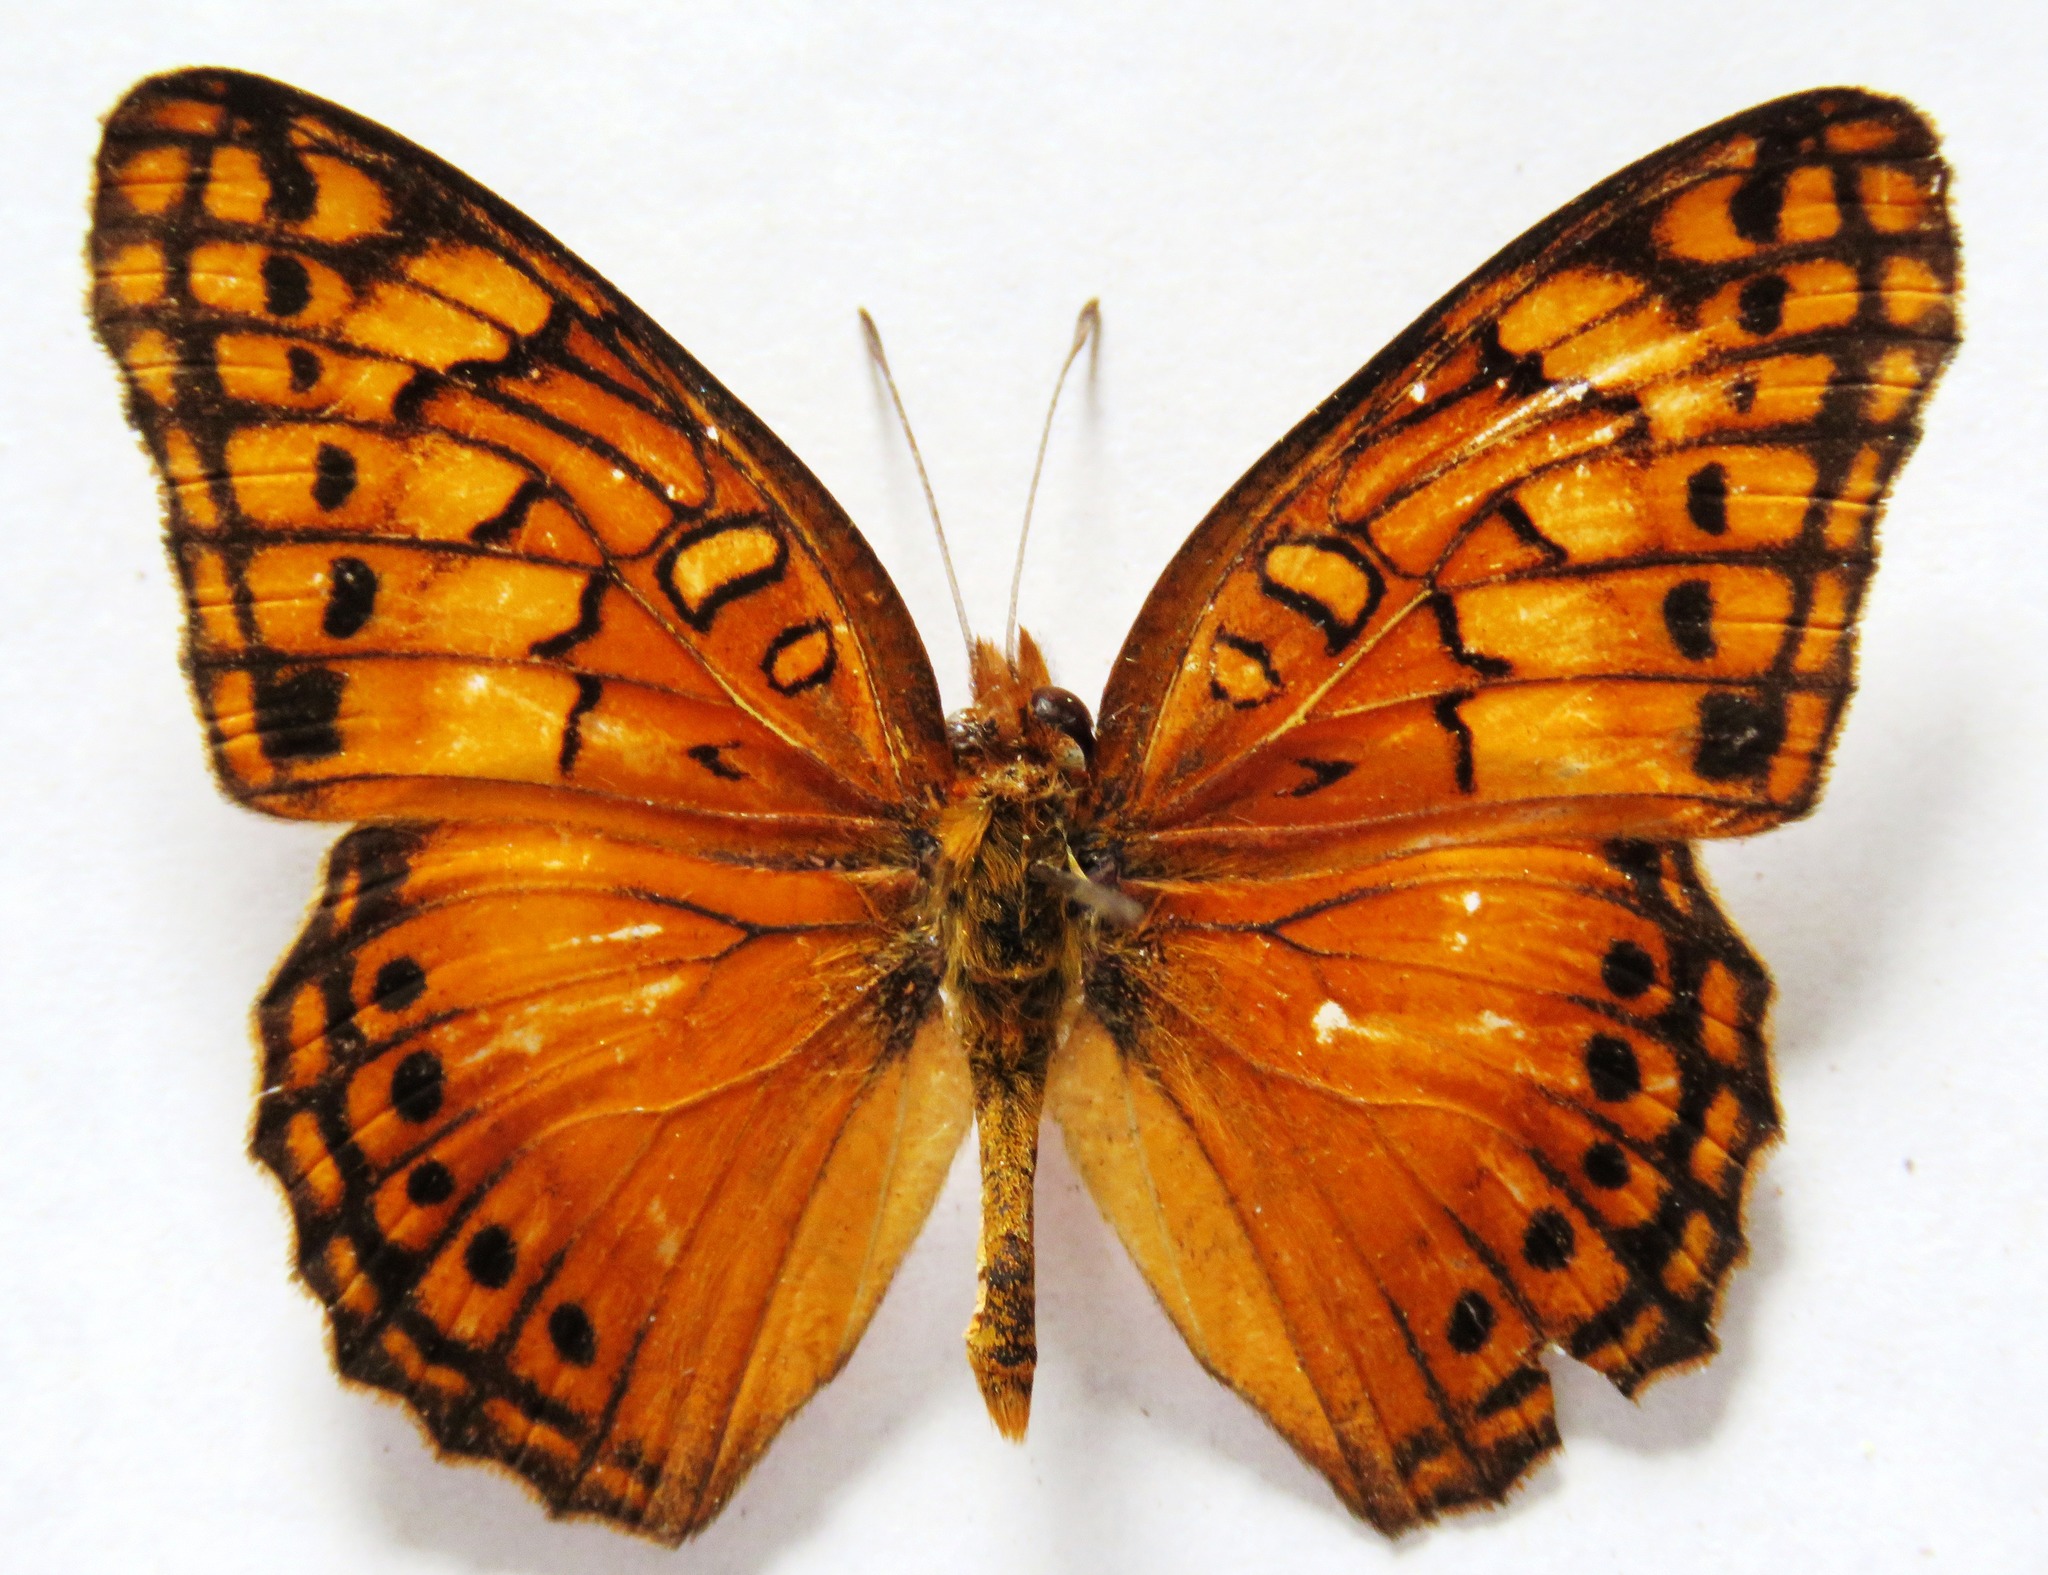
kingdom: Animalia
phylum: Arthropoda
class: Insecta
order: Lepidoptera
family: Nymphalidae
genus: Euptoieta
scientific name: Euptoieta hegesia
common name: Mexican fritillary
